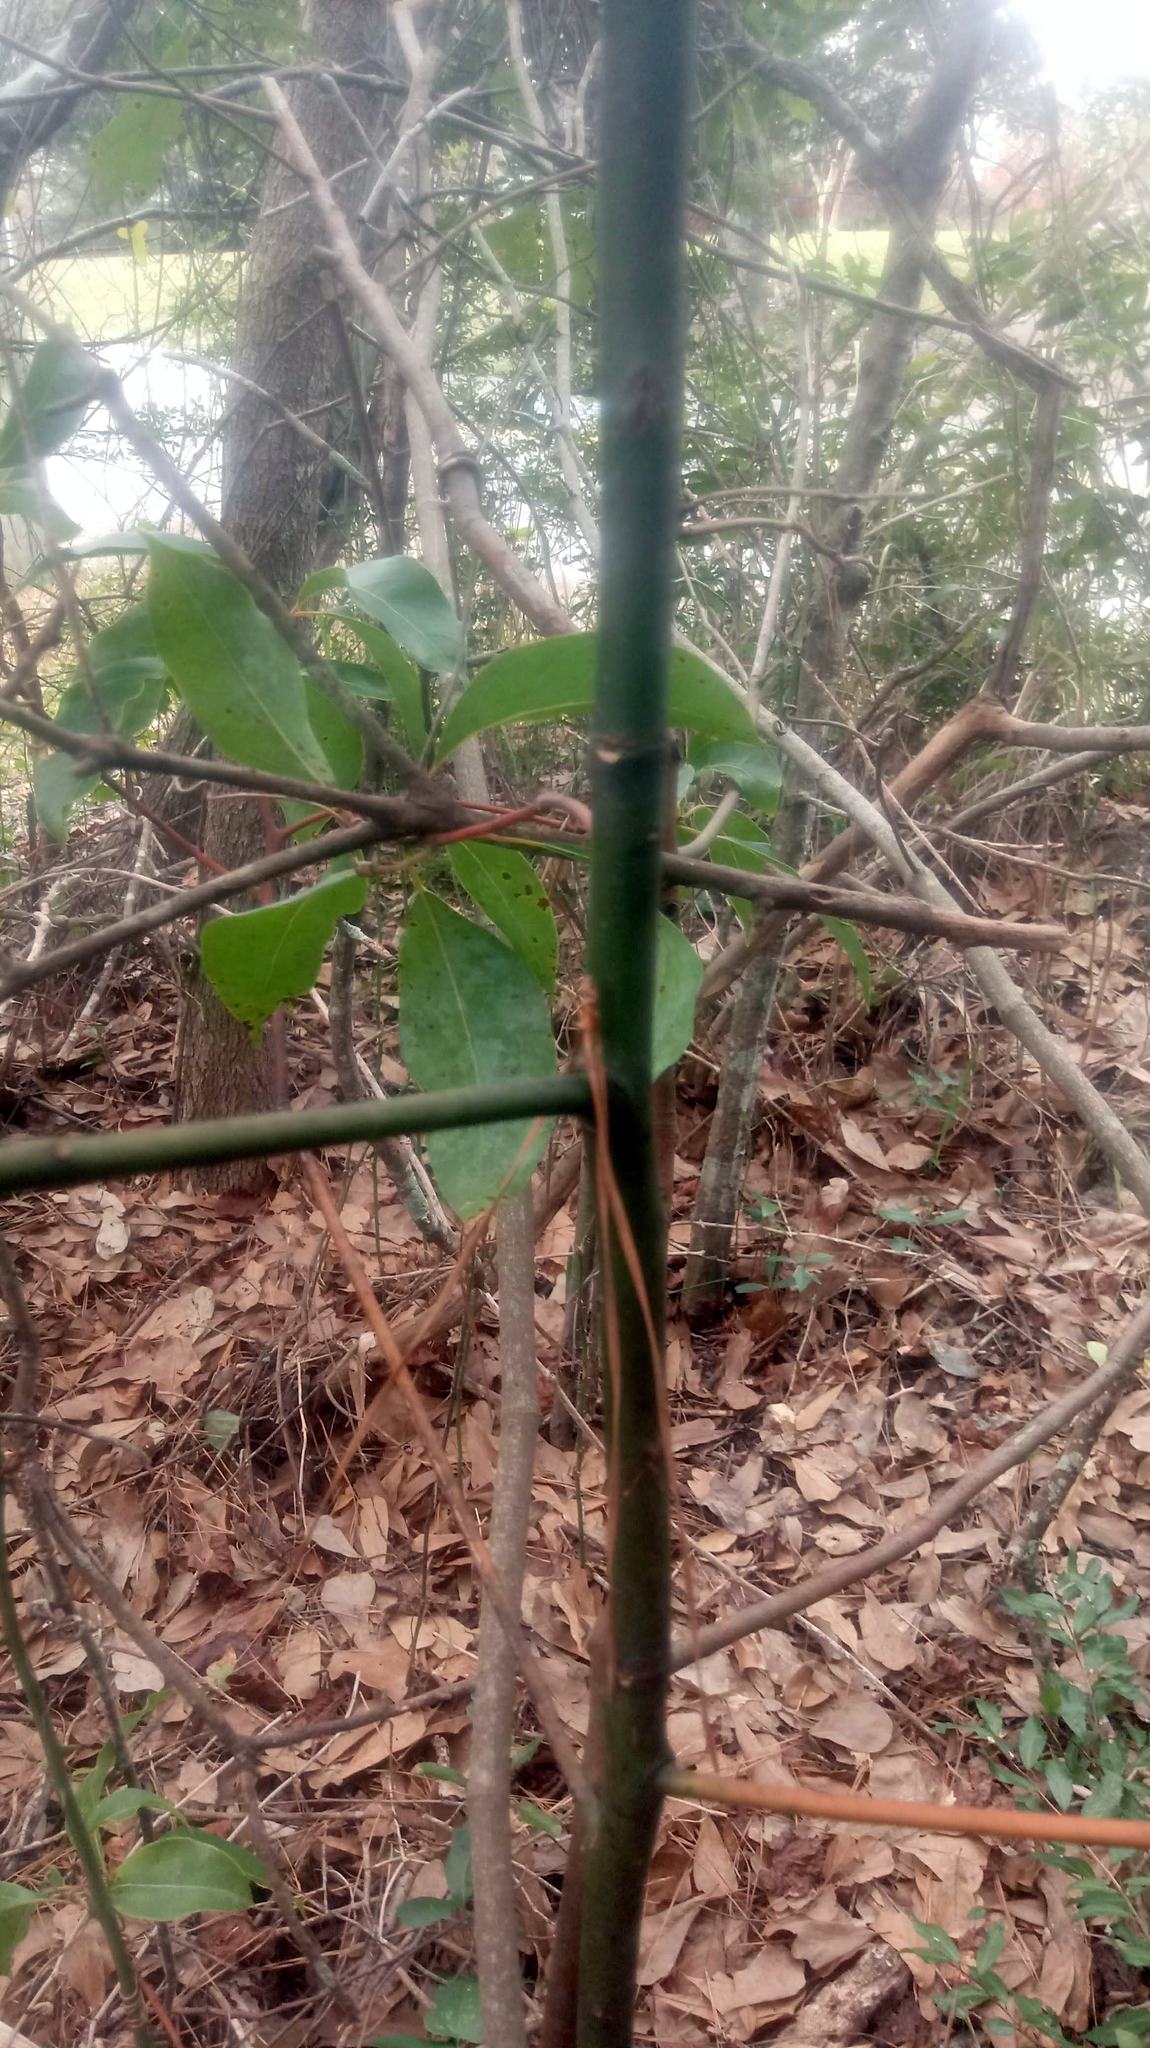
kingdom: Plantae
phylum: Tracheophyta
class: Magnoliopsida
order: Laurales
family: Lauraceae
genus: Cinnamomum
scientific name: Cinnamomum camphora
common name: Camphortree
